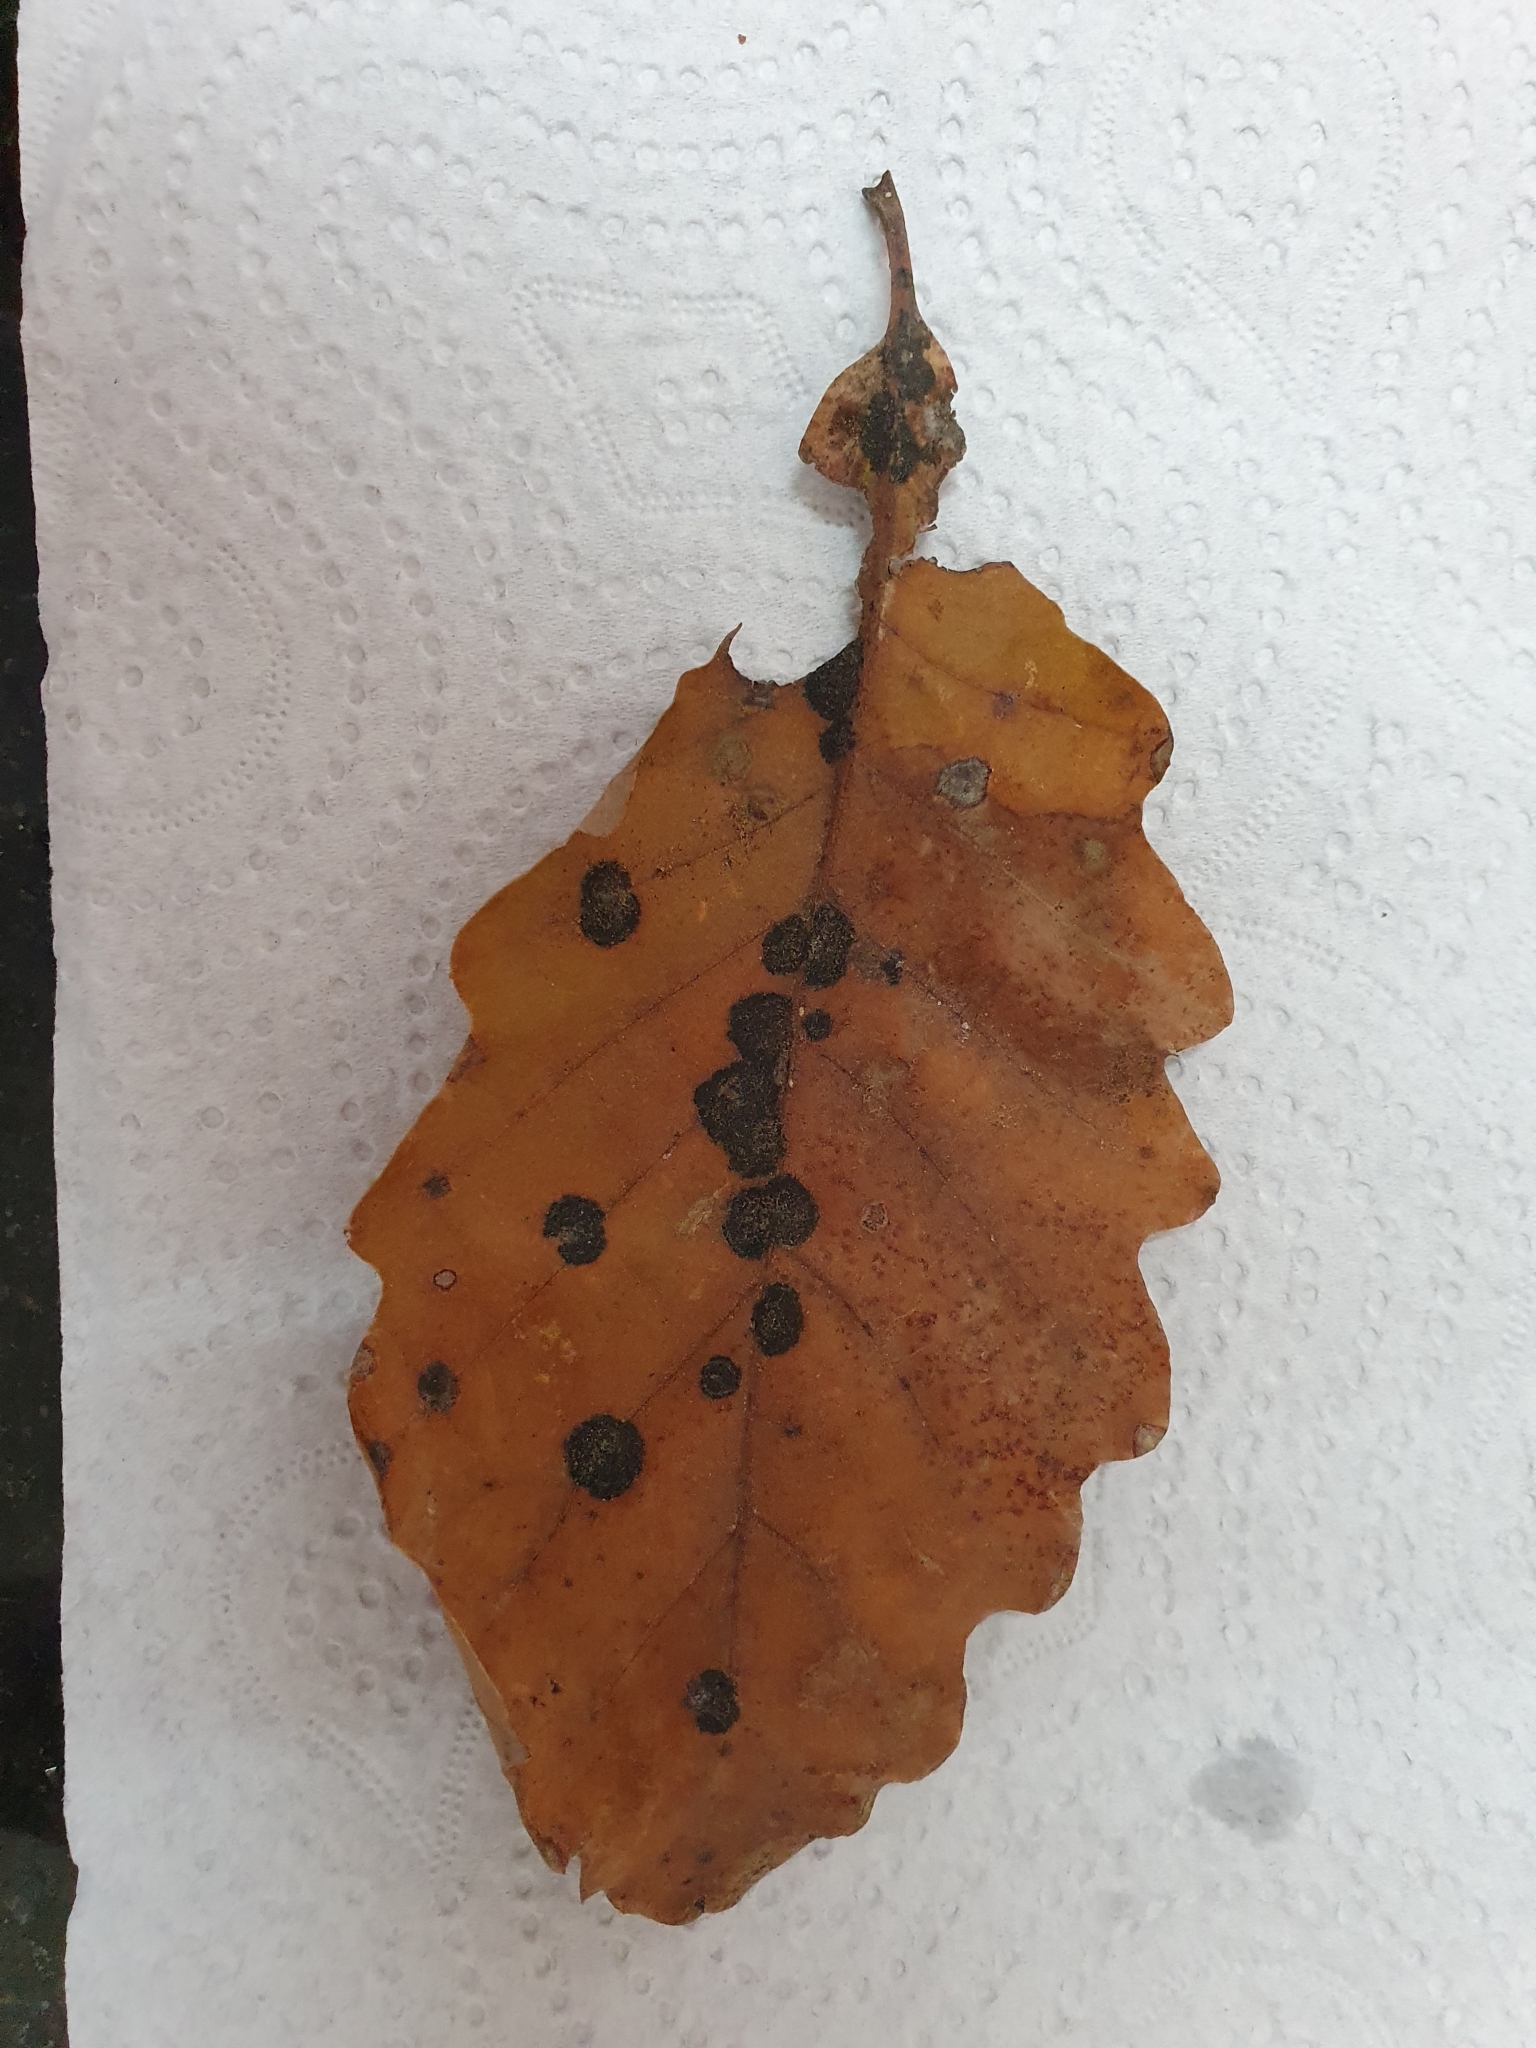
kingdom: Fungi
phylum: Ascomycota
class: Sordariomycetes
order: Phyllachorales
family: Phyllachoraceae
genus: Trabutia
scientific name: Trabutia quercina
